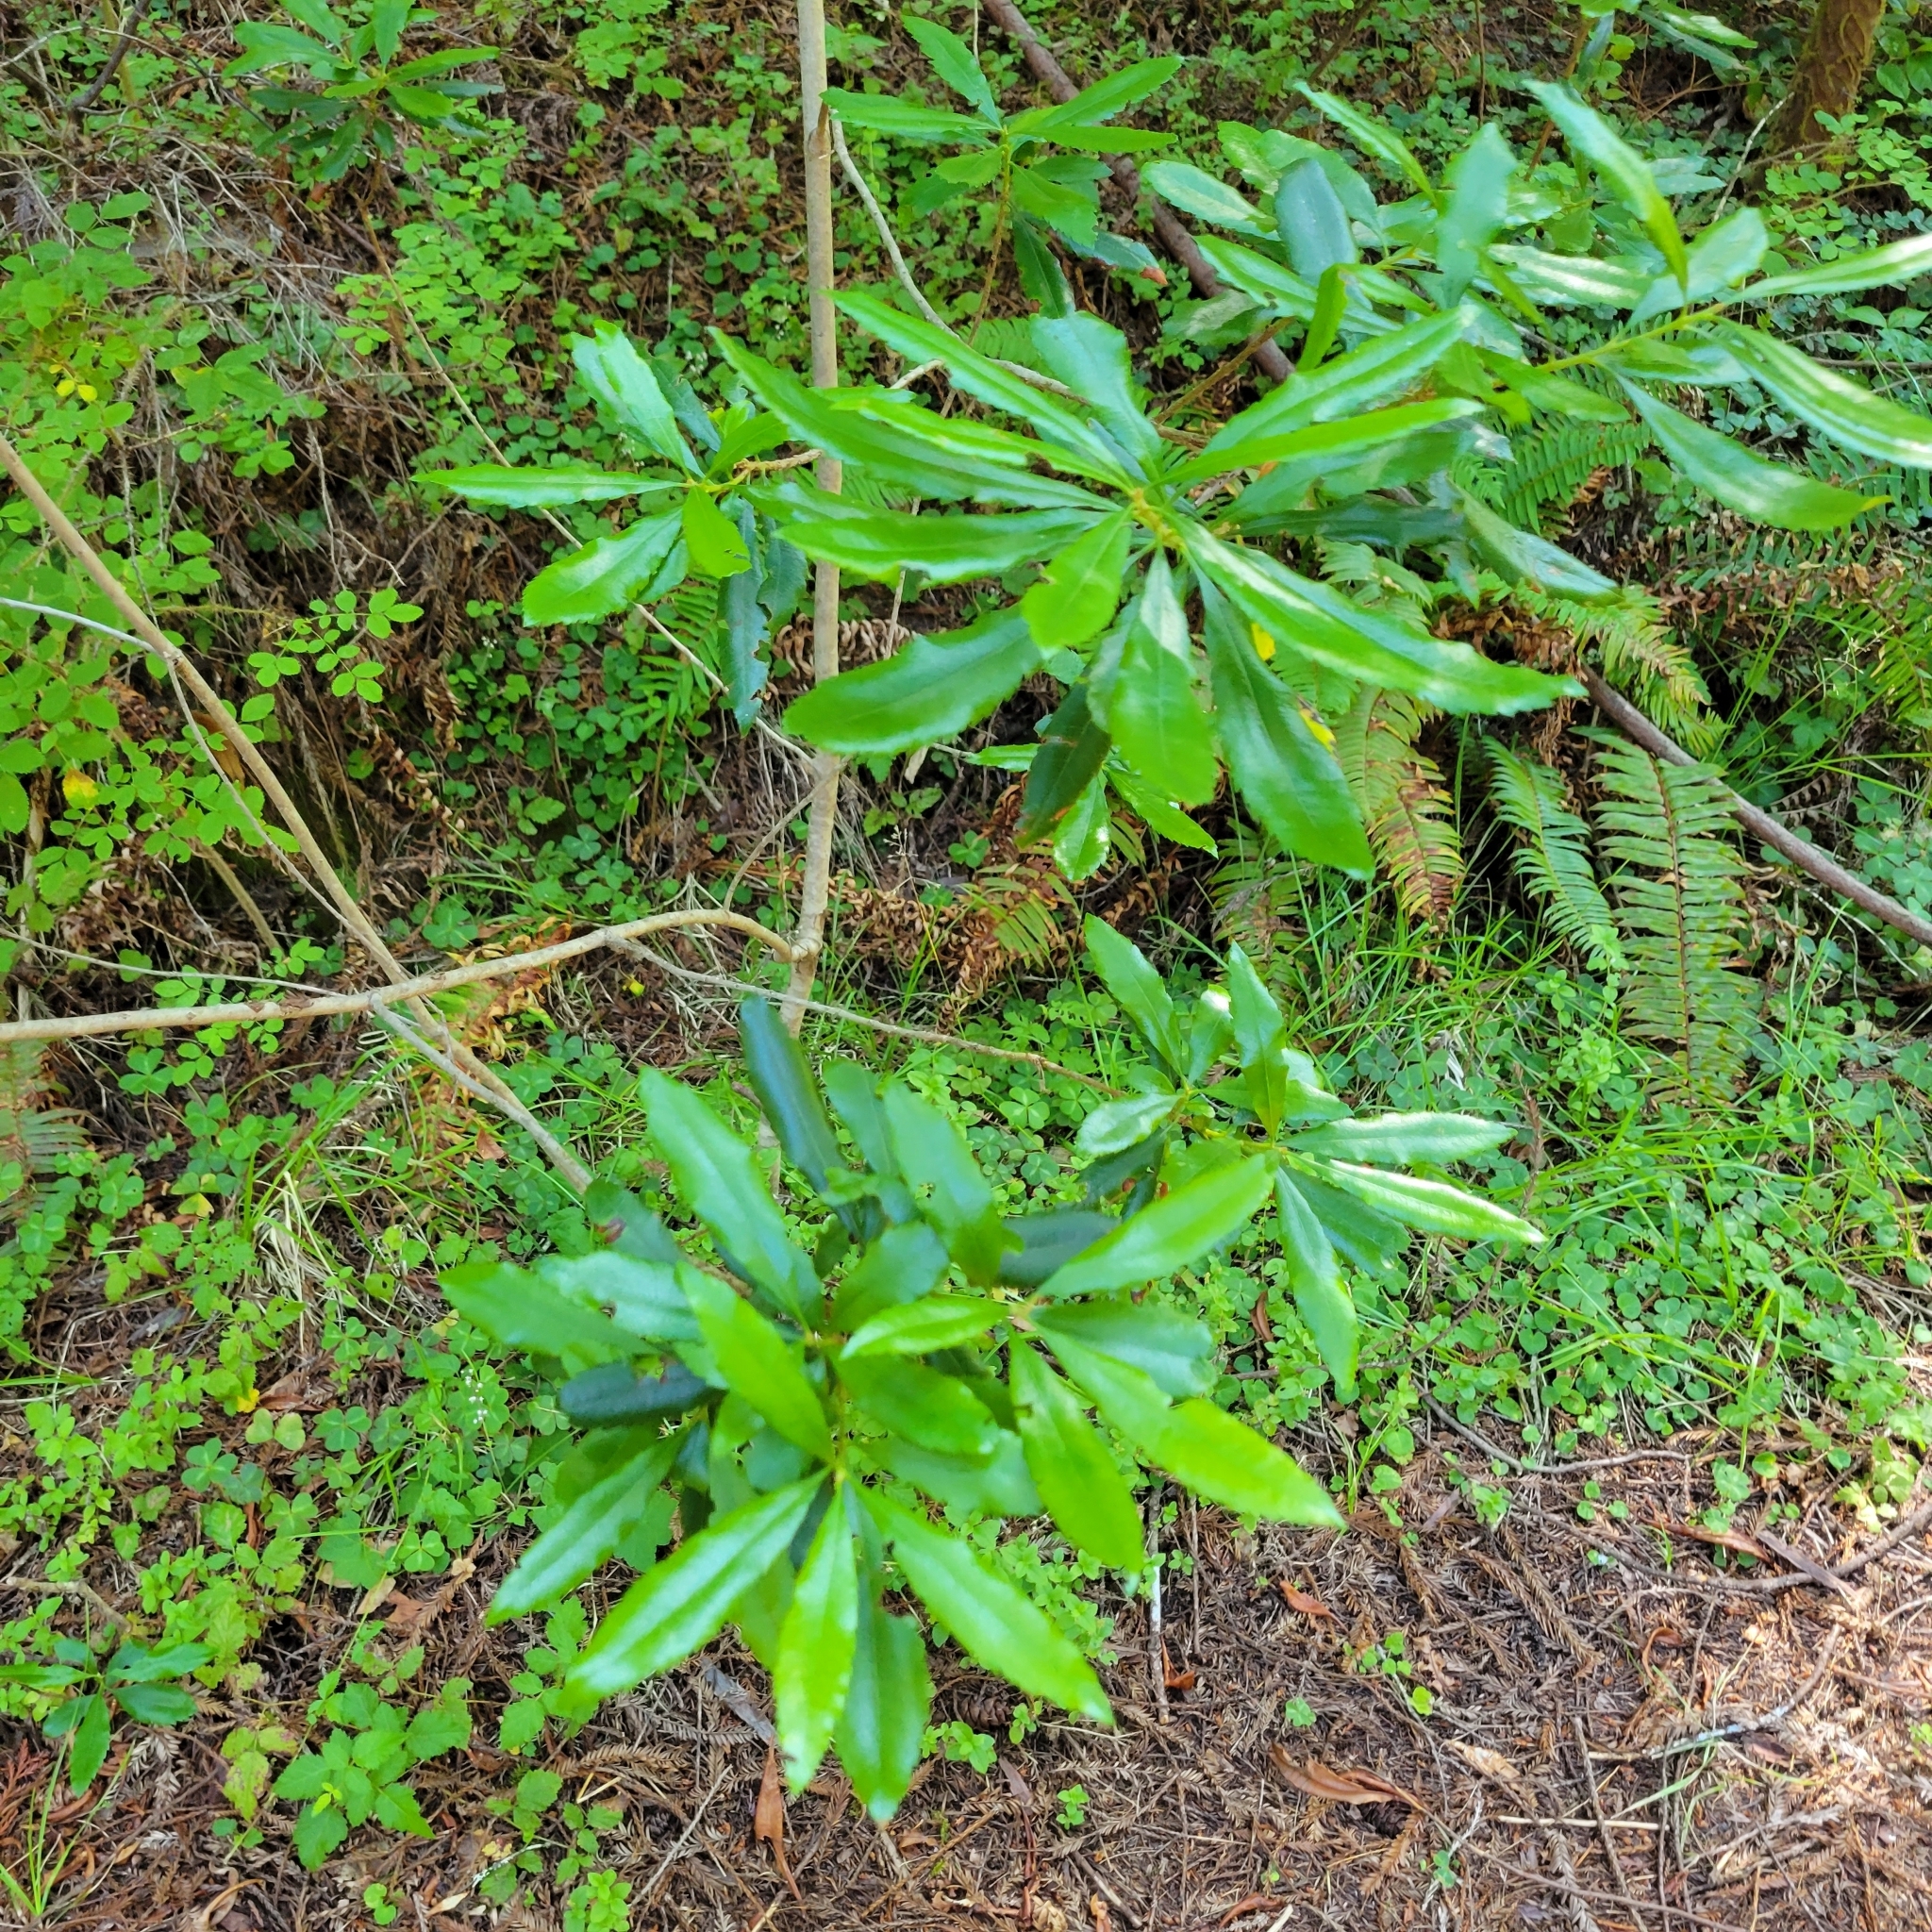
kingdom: Plantae
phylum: Tracheophyta
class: Magnoliopsida
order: Fagales
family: Myricaceae
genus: Morella
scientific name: Morella californica
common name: California wax-myrtle
